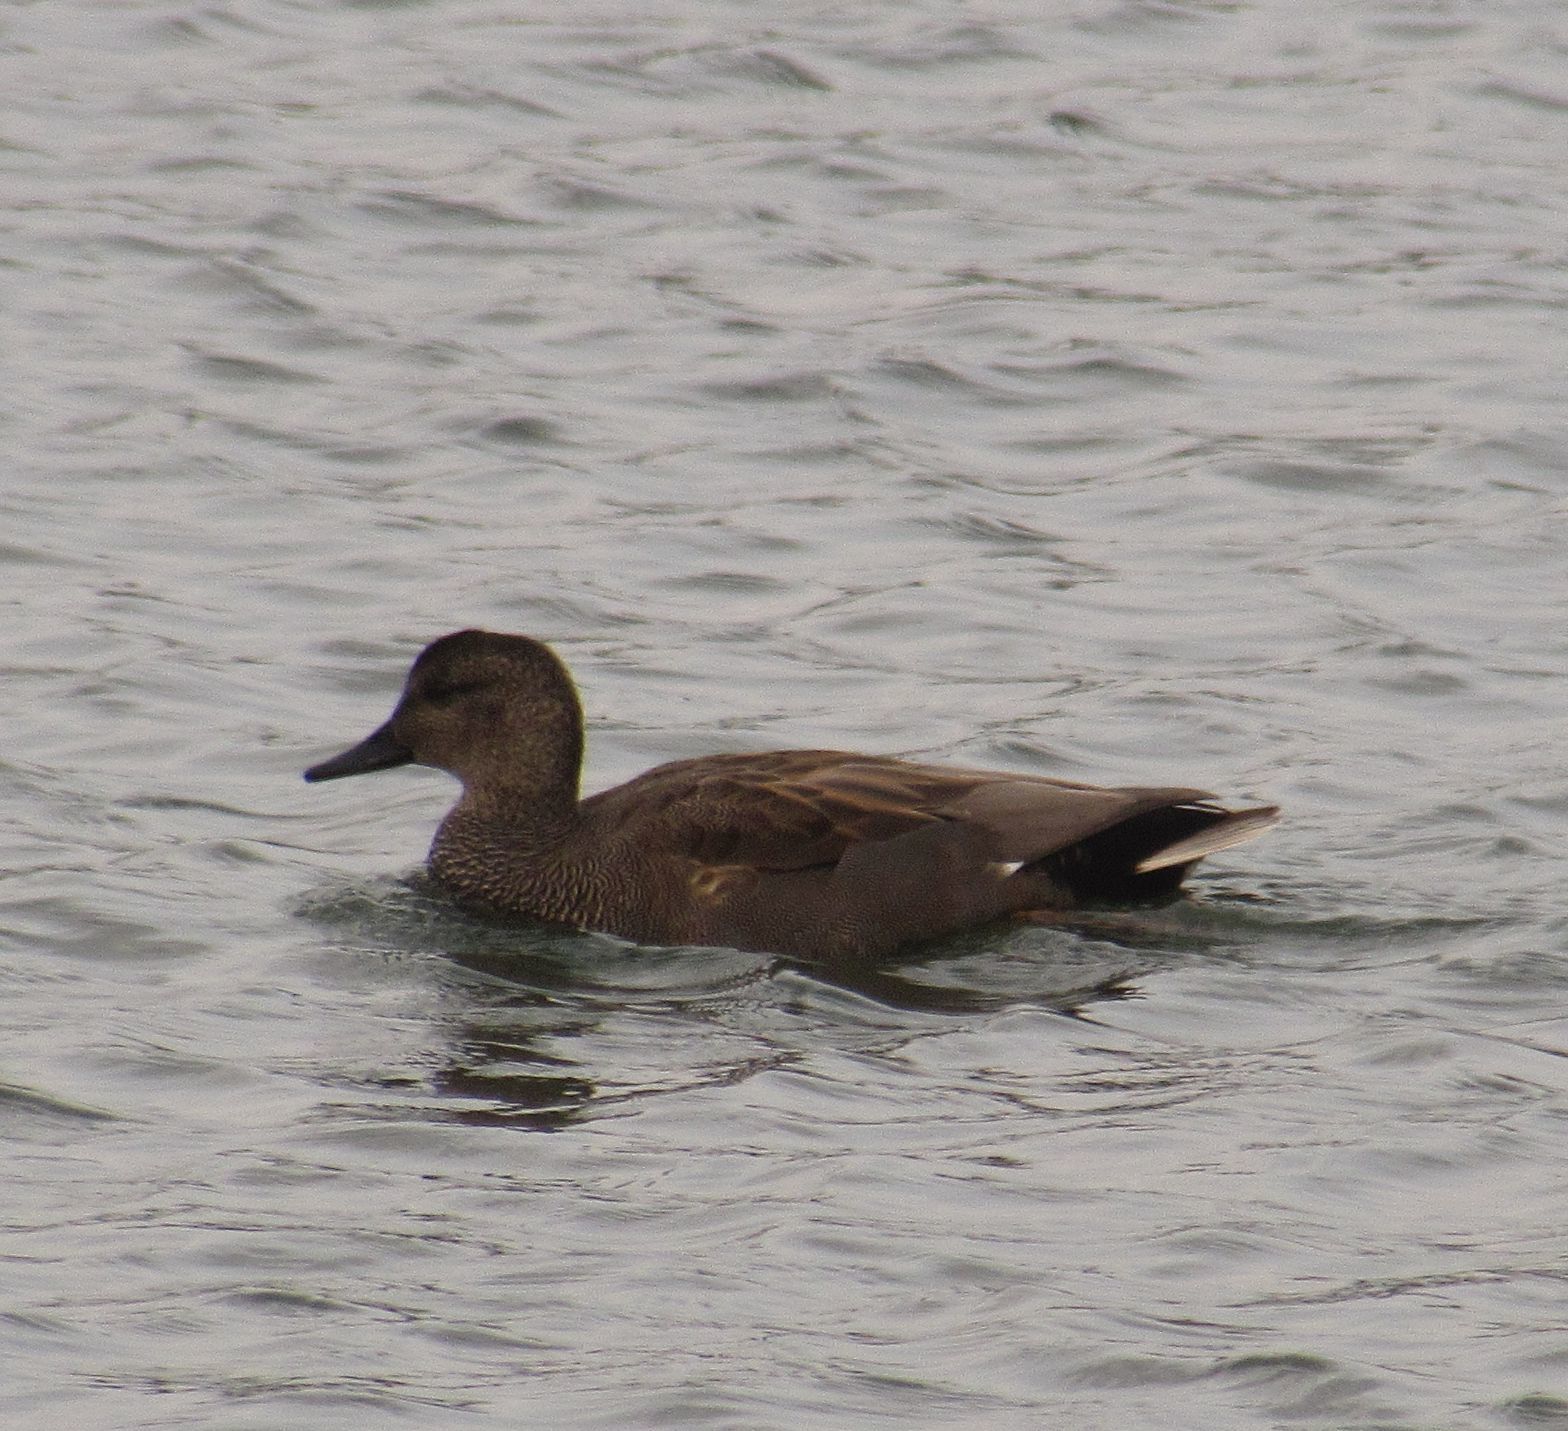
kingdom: Animalia
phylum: Chordata
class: Aves
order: Anseriformes
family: Anatidae
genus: Mareca
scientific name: Mareca strepera
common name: Gadwall
